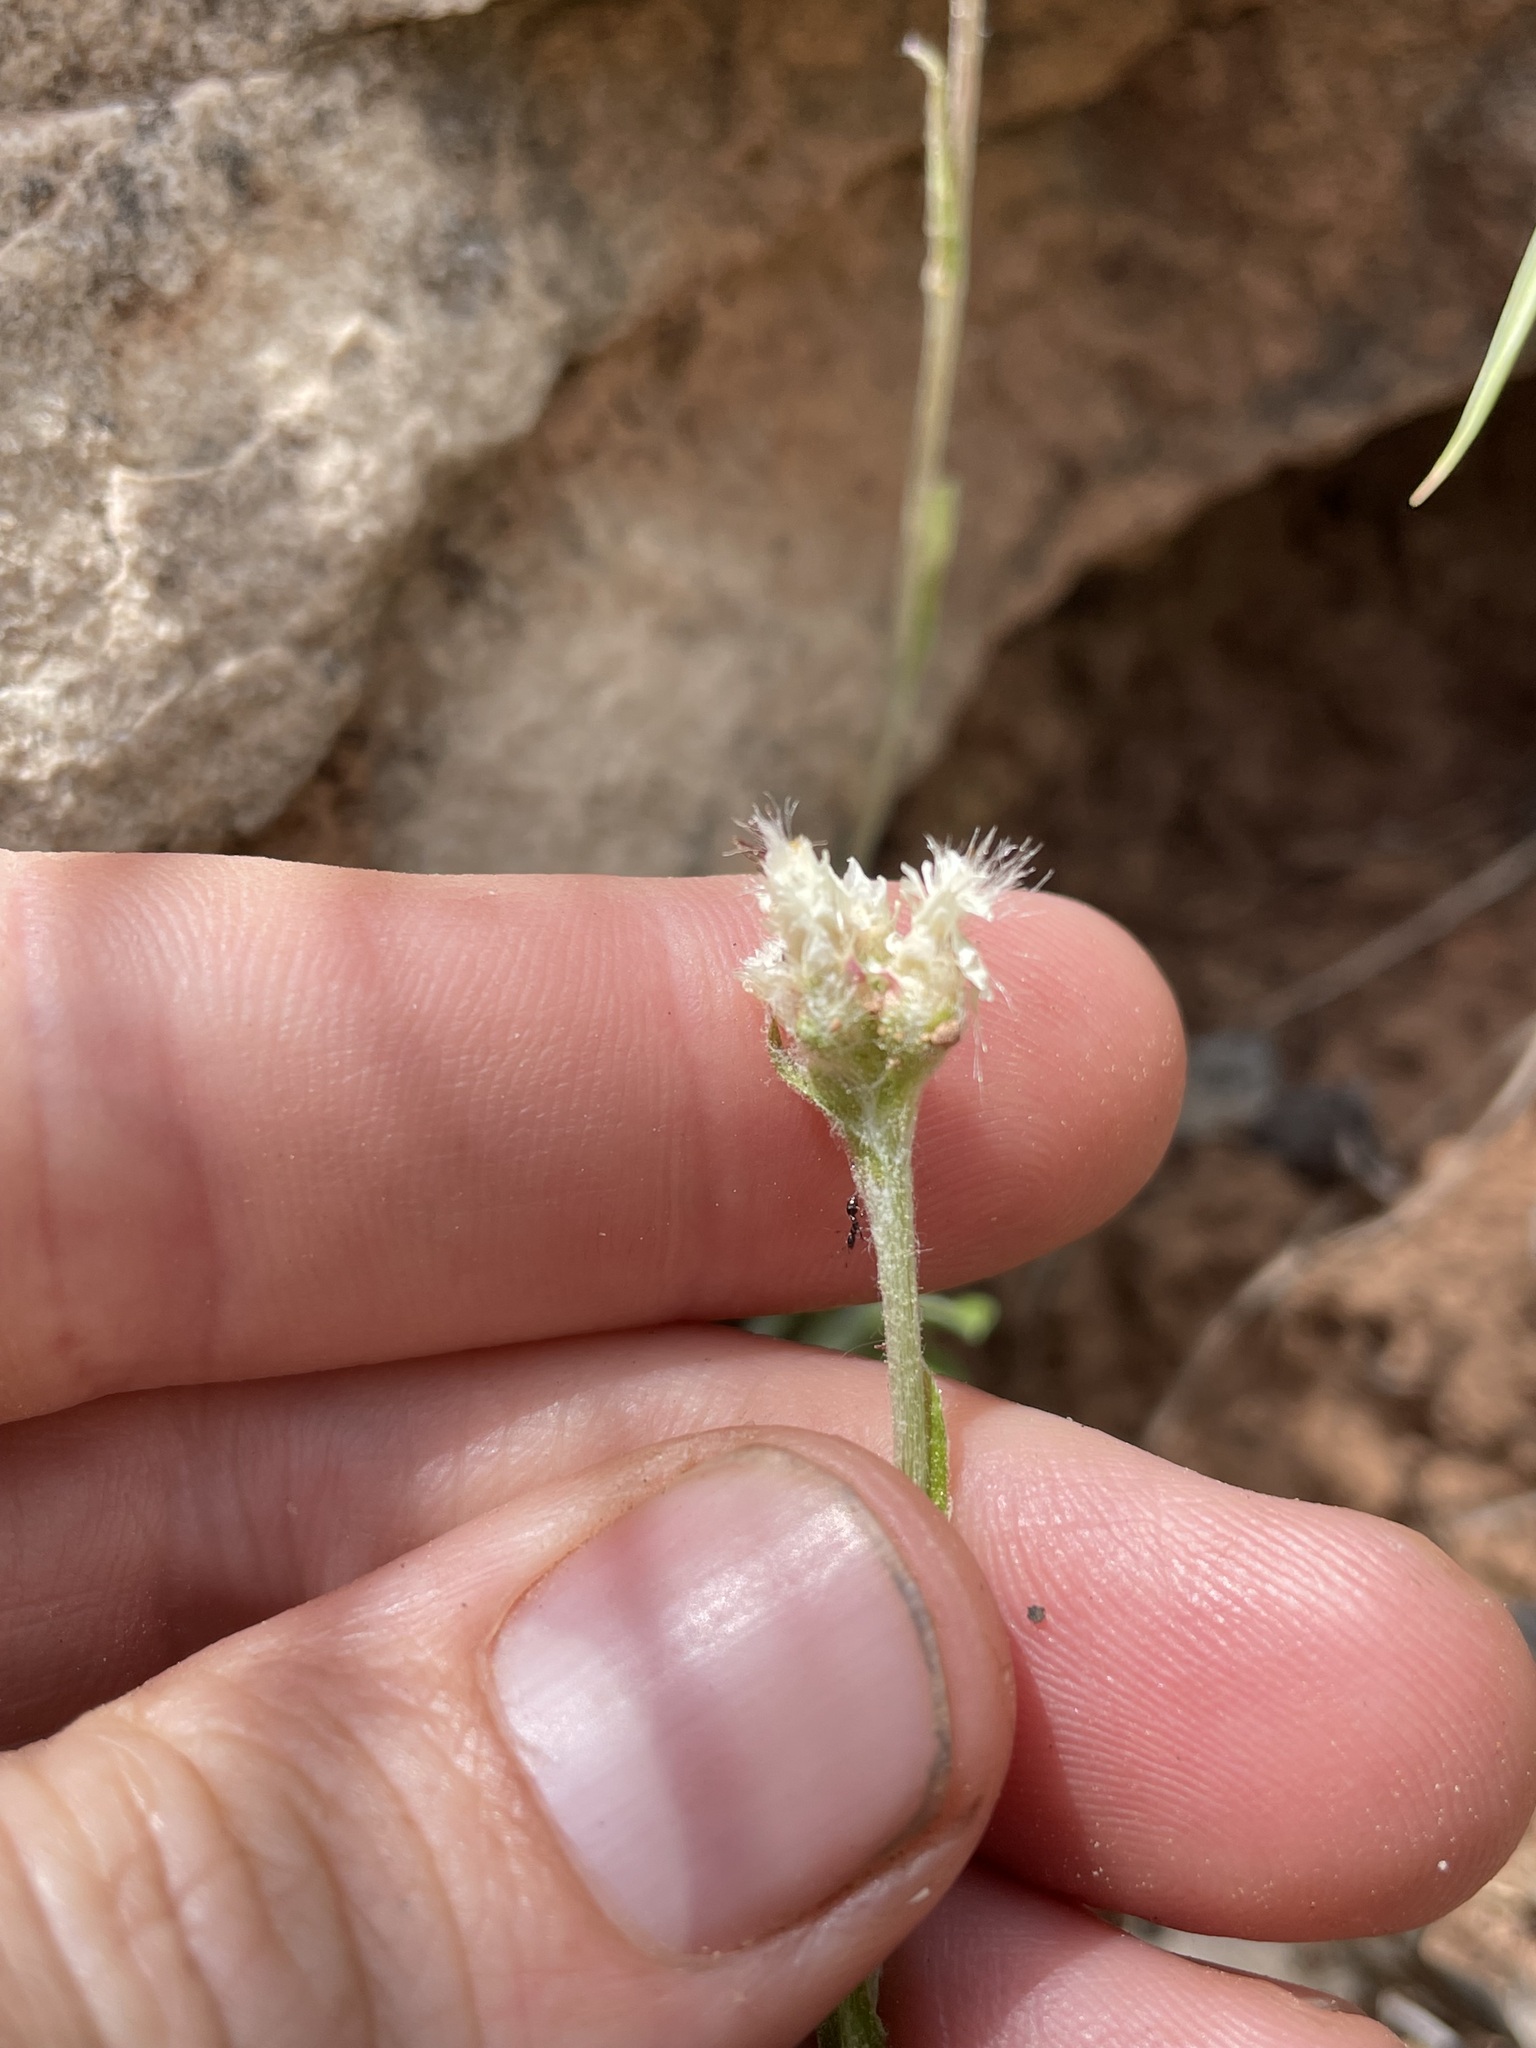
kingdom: Plantae
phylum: Tracheophyta
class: Magnoliopsida
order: Asterales
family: Asteraceae
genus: Antennaria
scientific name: Antennaria marginata
